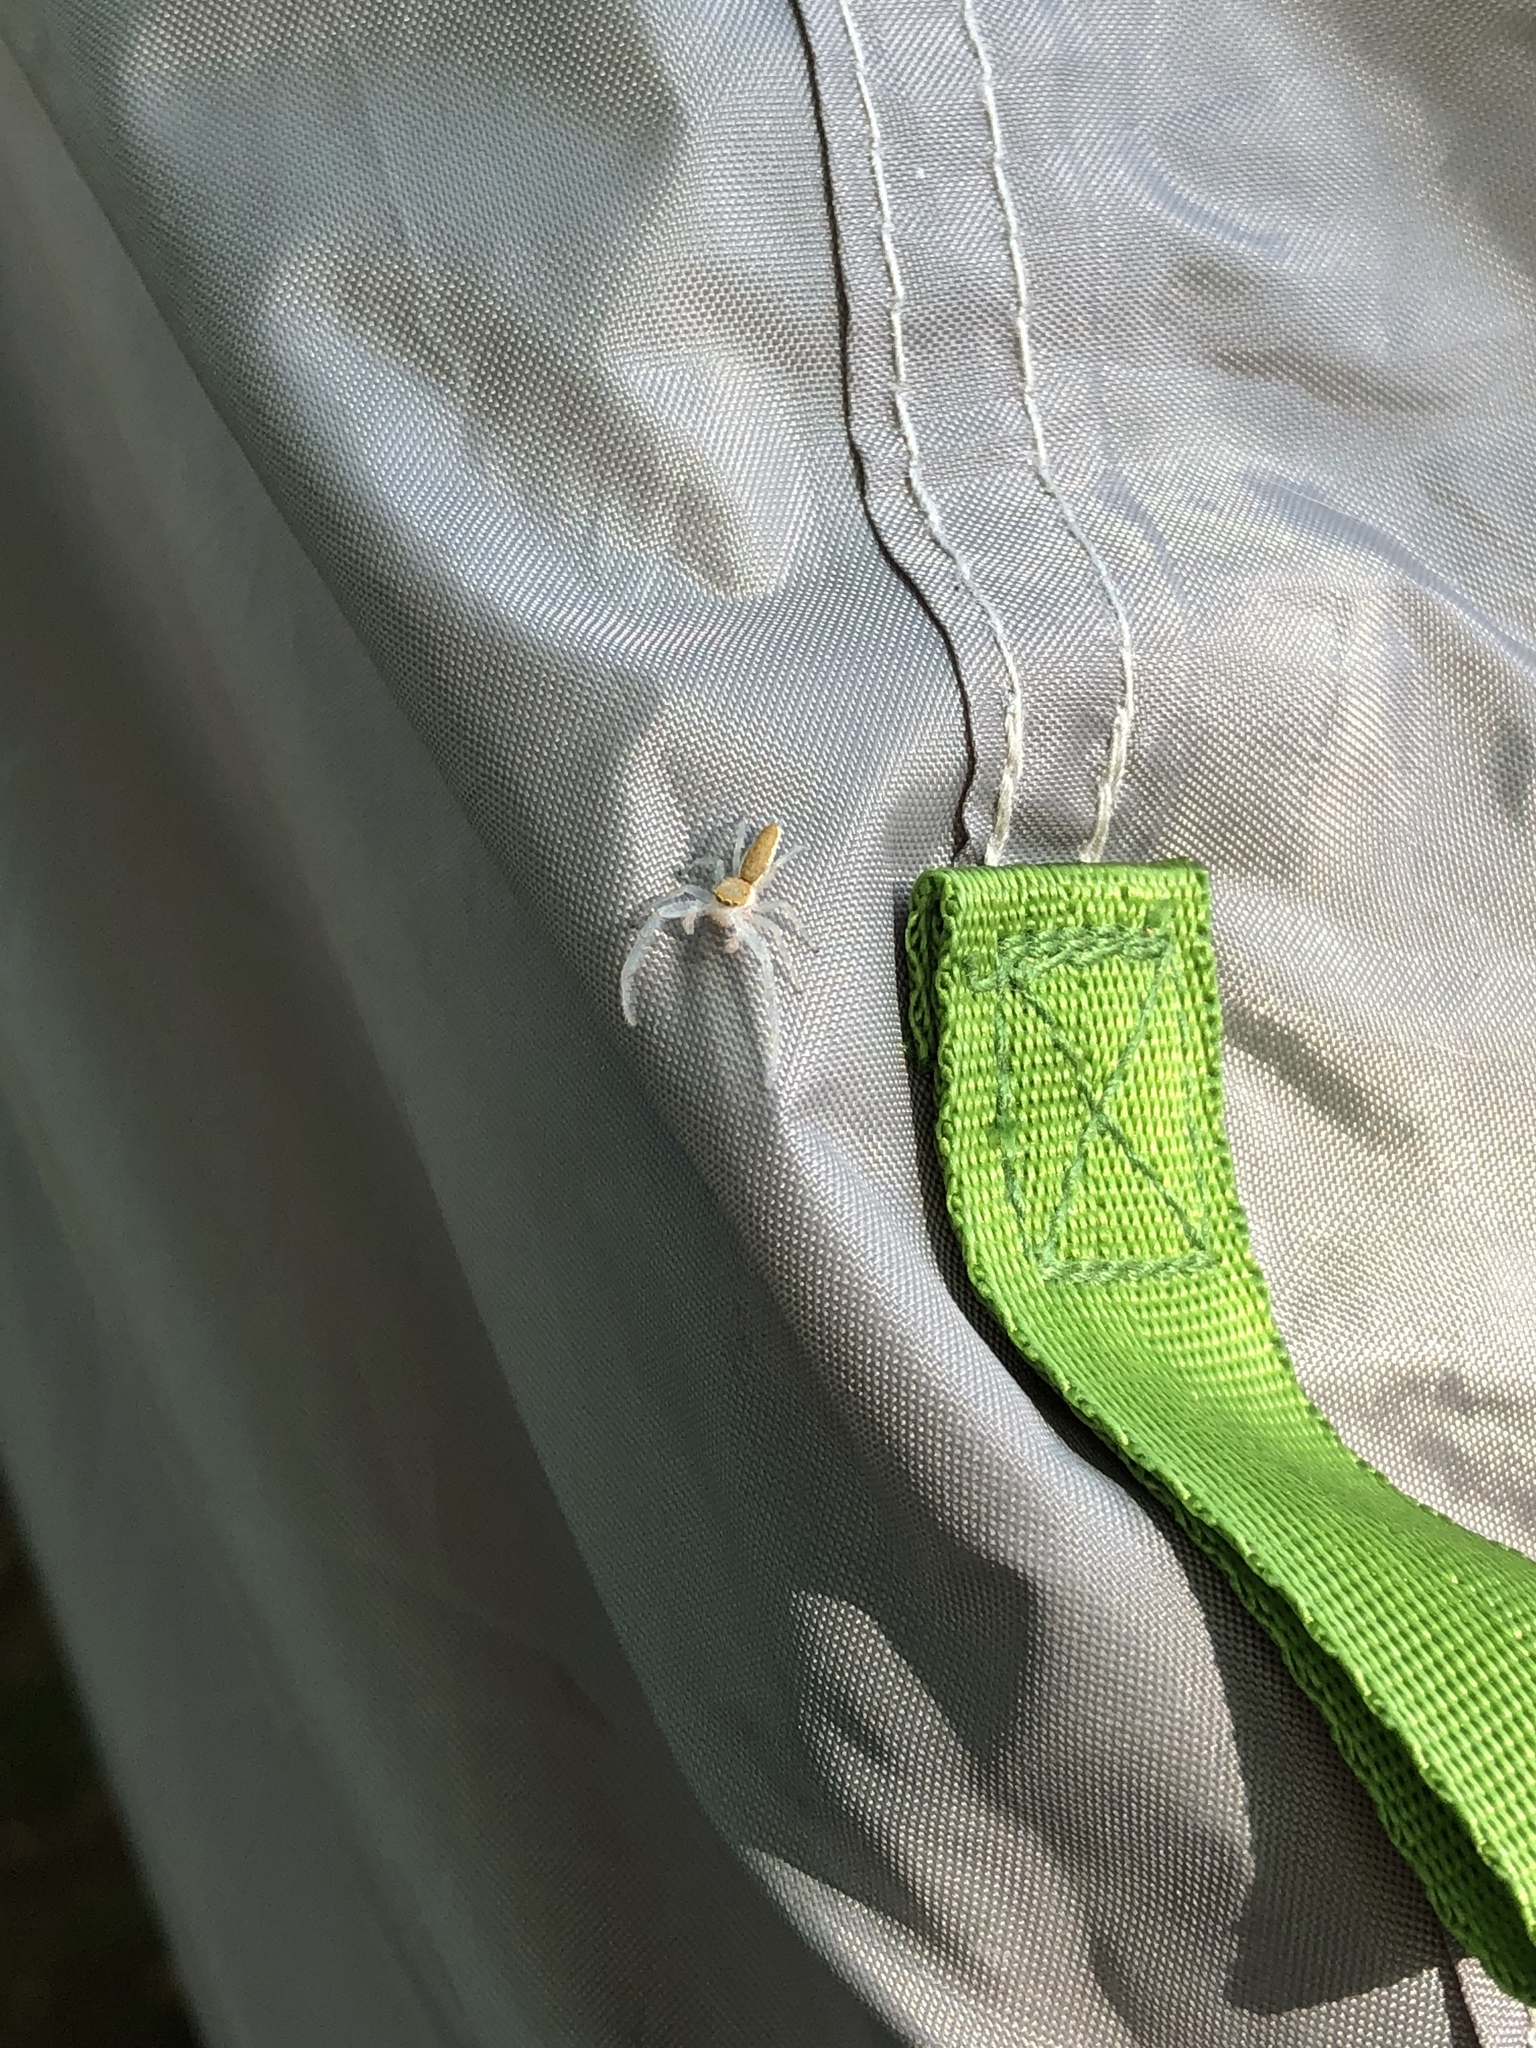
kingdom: Animalia
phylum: Arthropoda
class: Arachnida
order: Araneae
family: Salticidae
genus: Hentzia
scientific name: Hentzia mitrata
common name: White-jawed jumping spider
